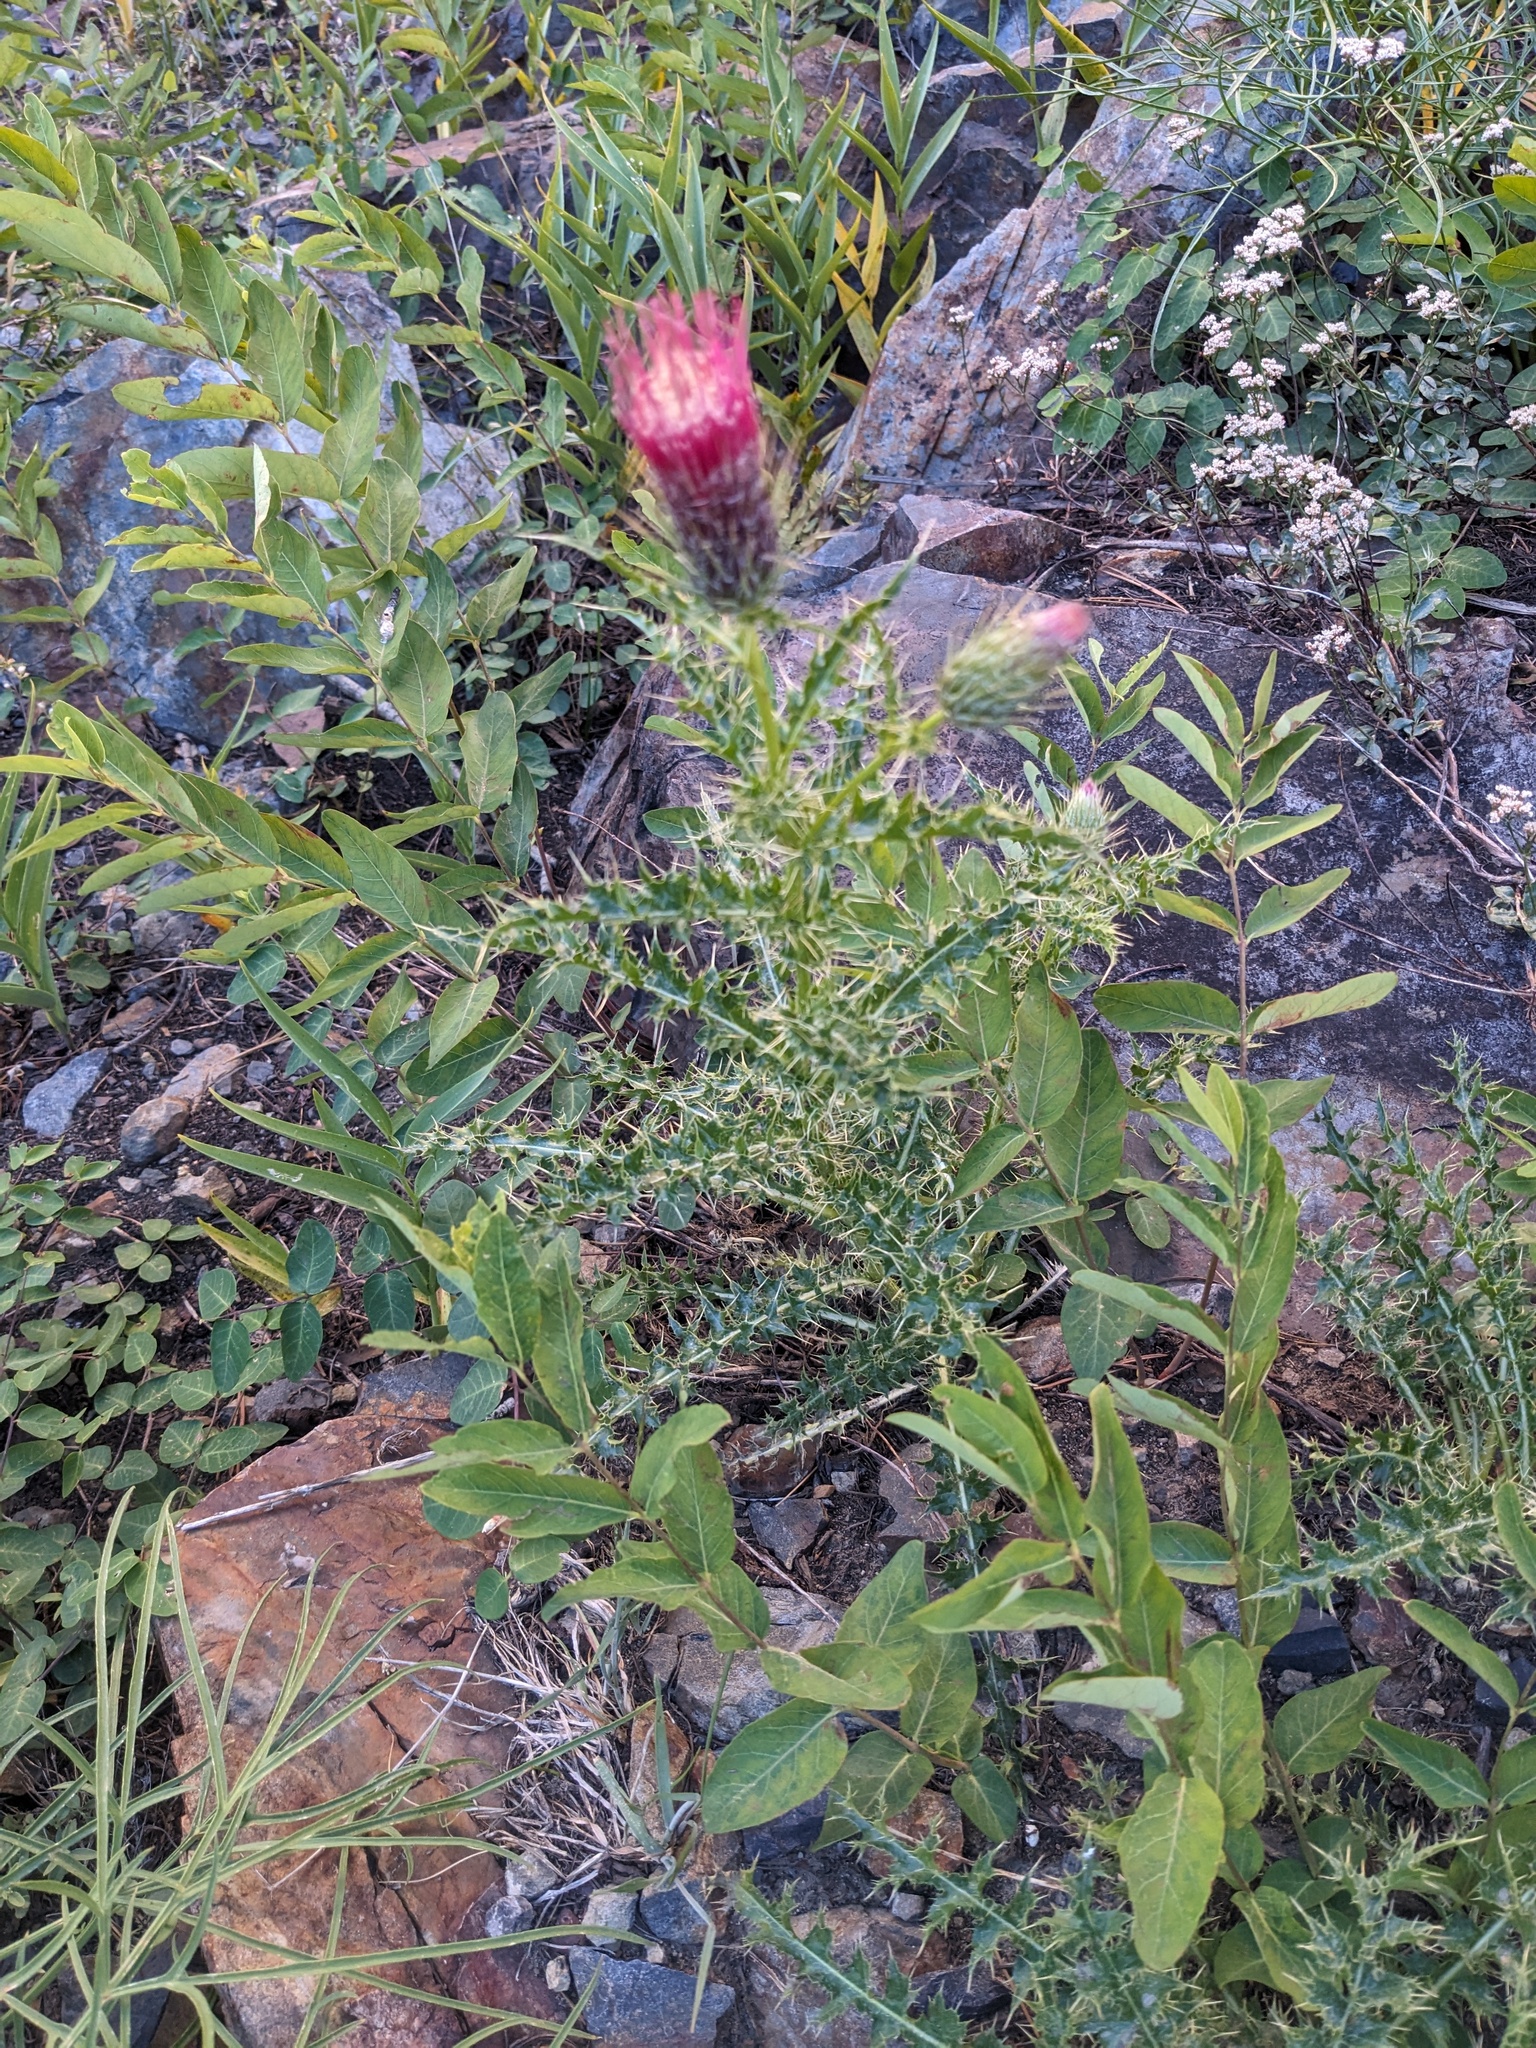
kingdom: Plantae
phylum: Tracheophyta
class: Magnoliopsida
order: Asterales
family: Asteraceae
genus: Cirsium
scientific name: Cirsium arizonicum
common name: Arizona thistle
